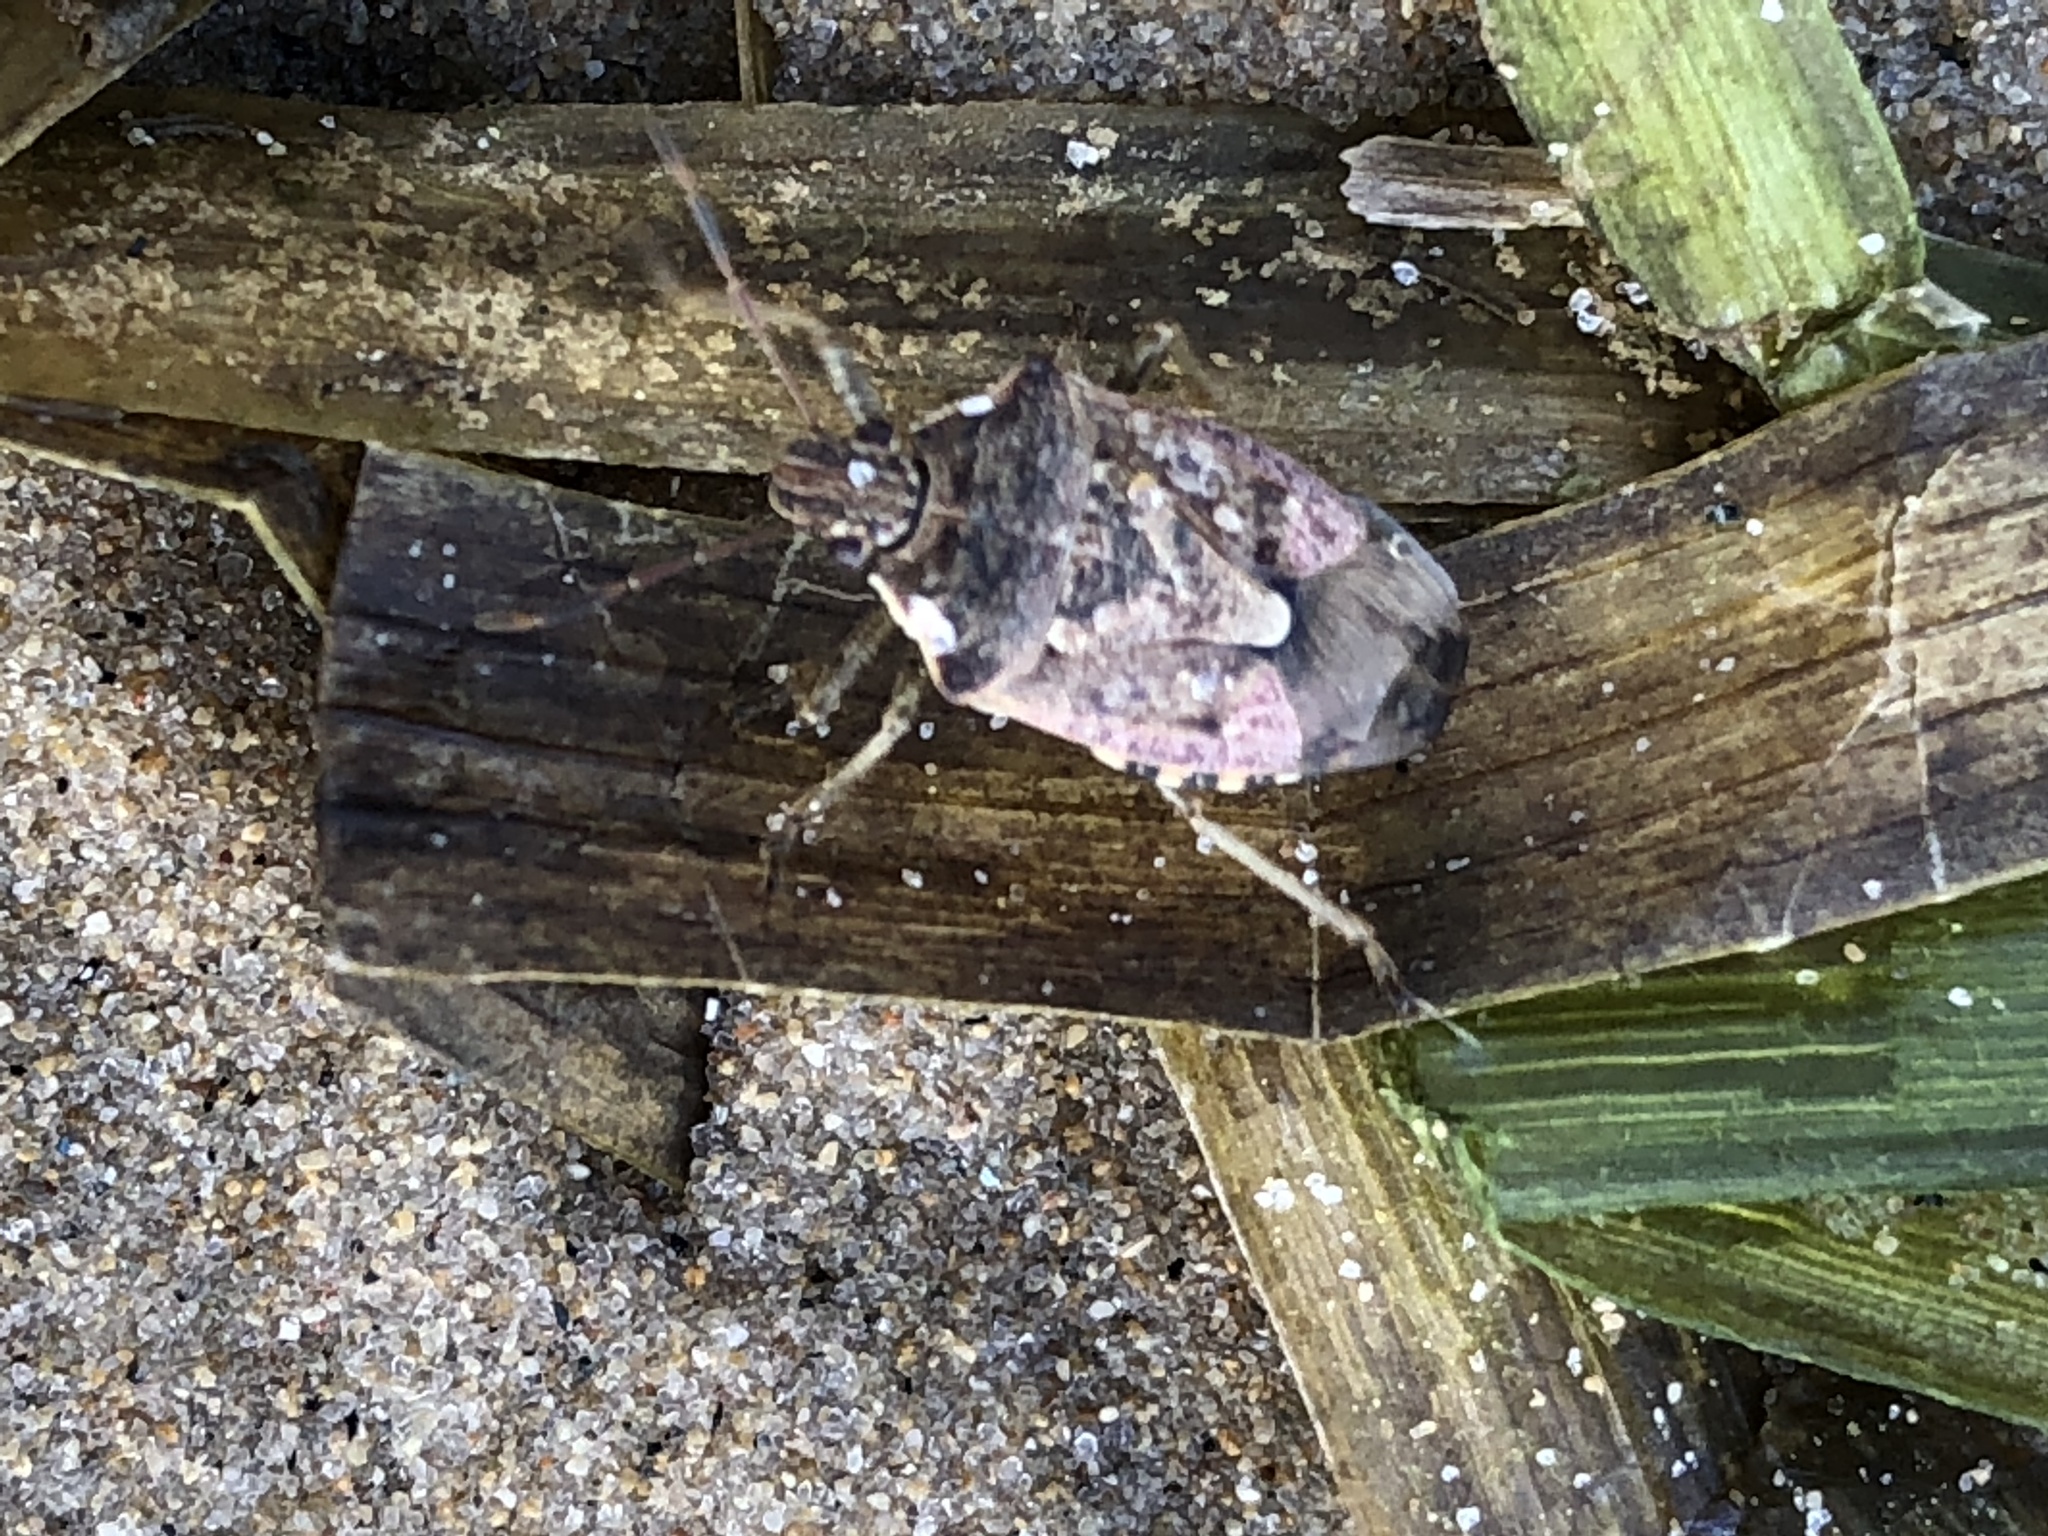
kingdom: Animalia
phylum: Arthropoda
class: Insecta
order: Hemiptera
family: Pentatomidae
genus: Podisus
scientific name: Podisus serieventris
